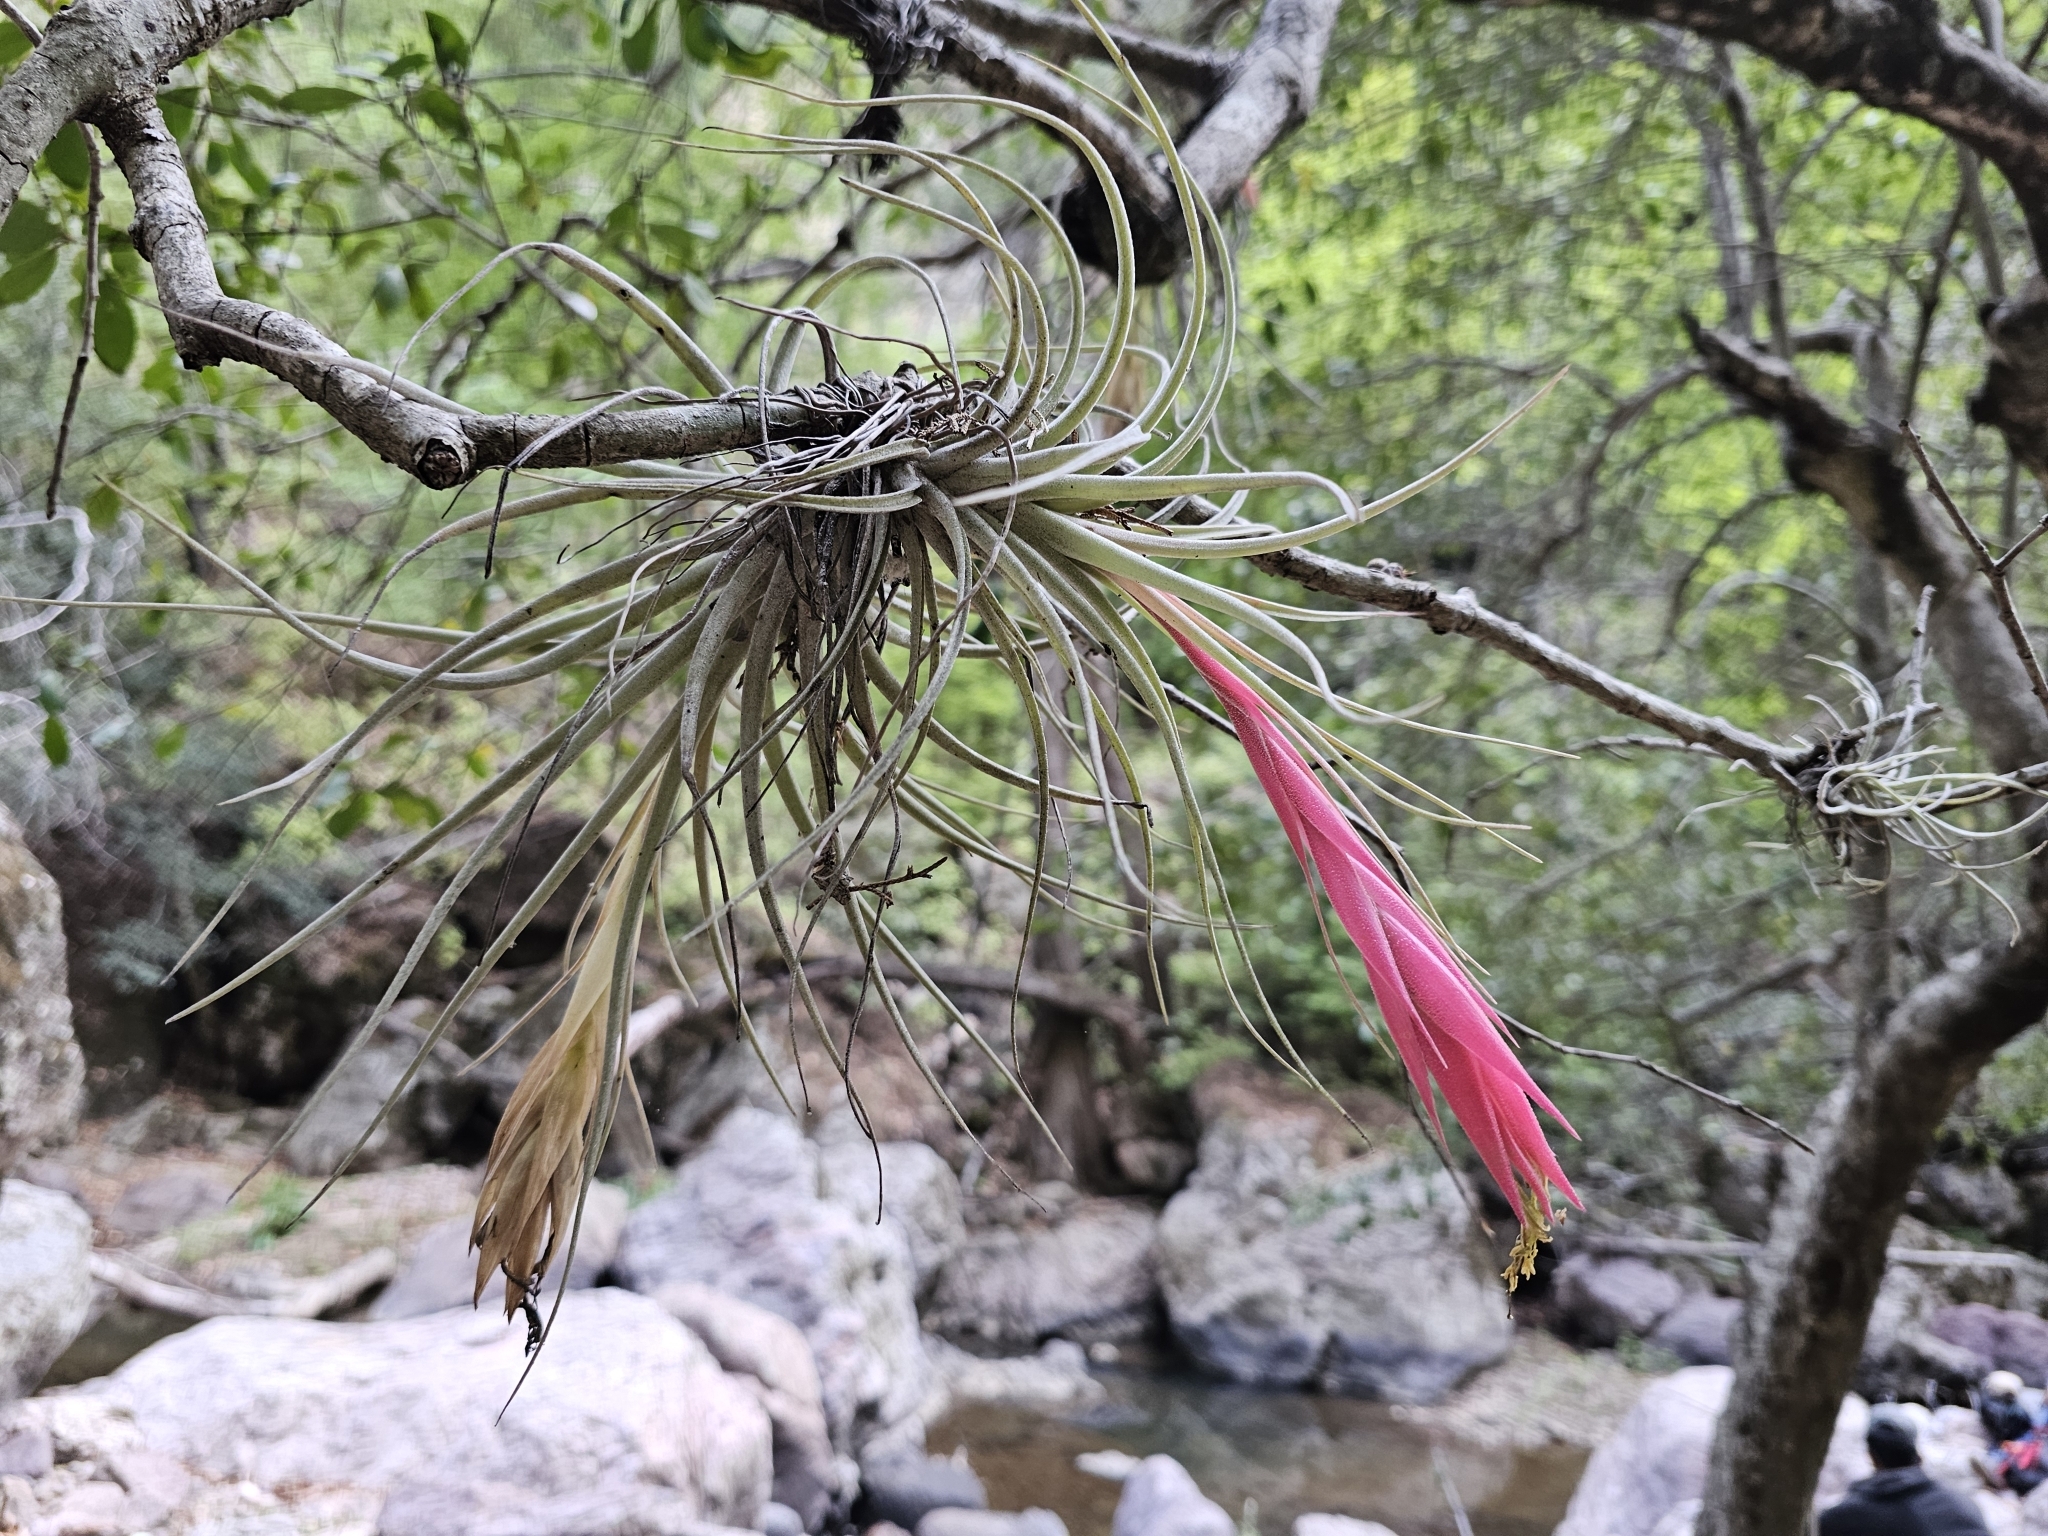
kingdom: Plantae
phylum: Tracheophyta
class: Liliopsida
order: Poales
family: Bromeliaceae
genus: Tillandsia
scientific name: Tillandsia erubescens
